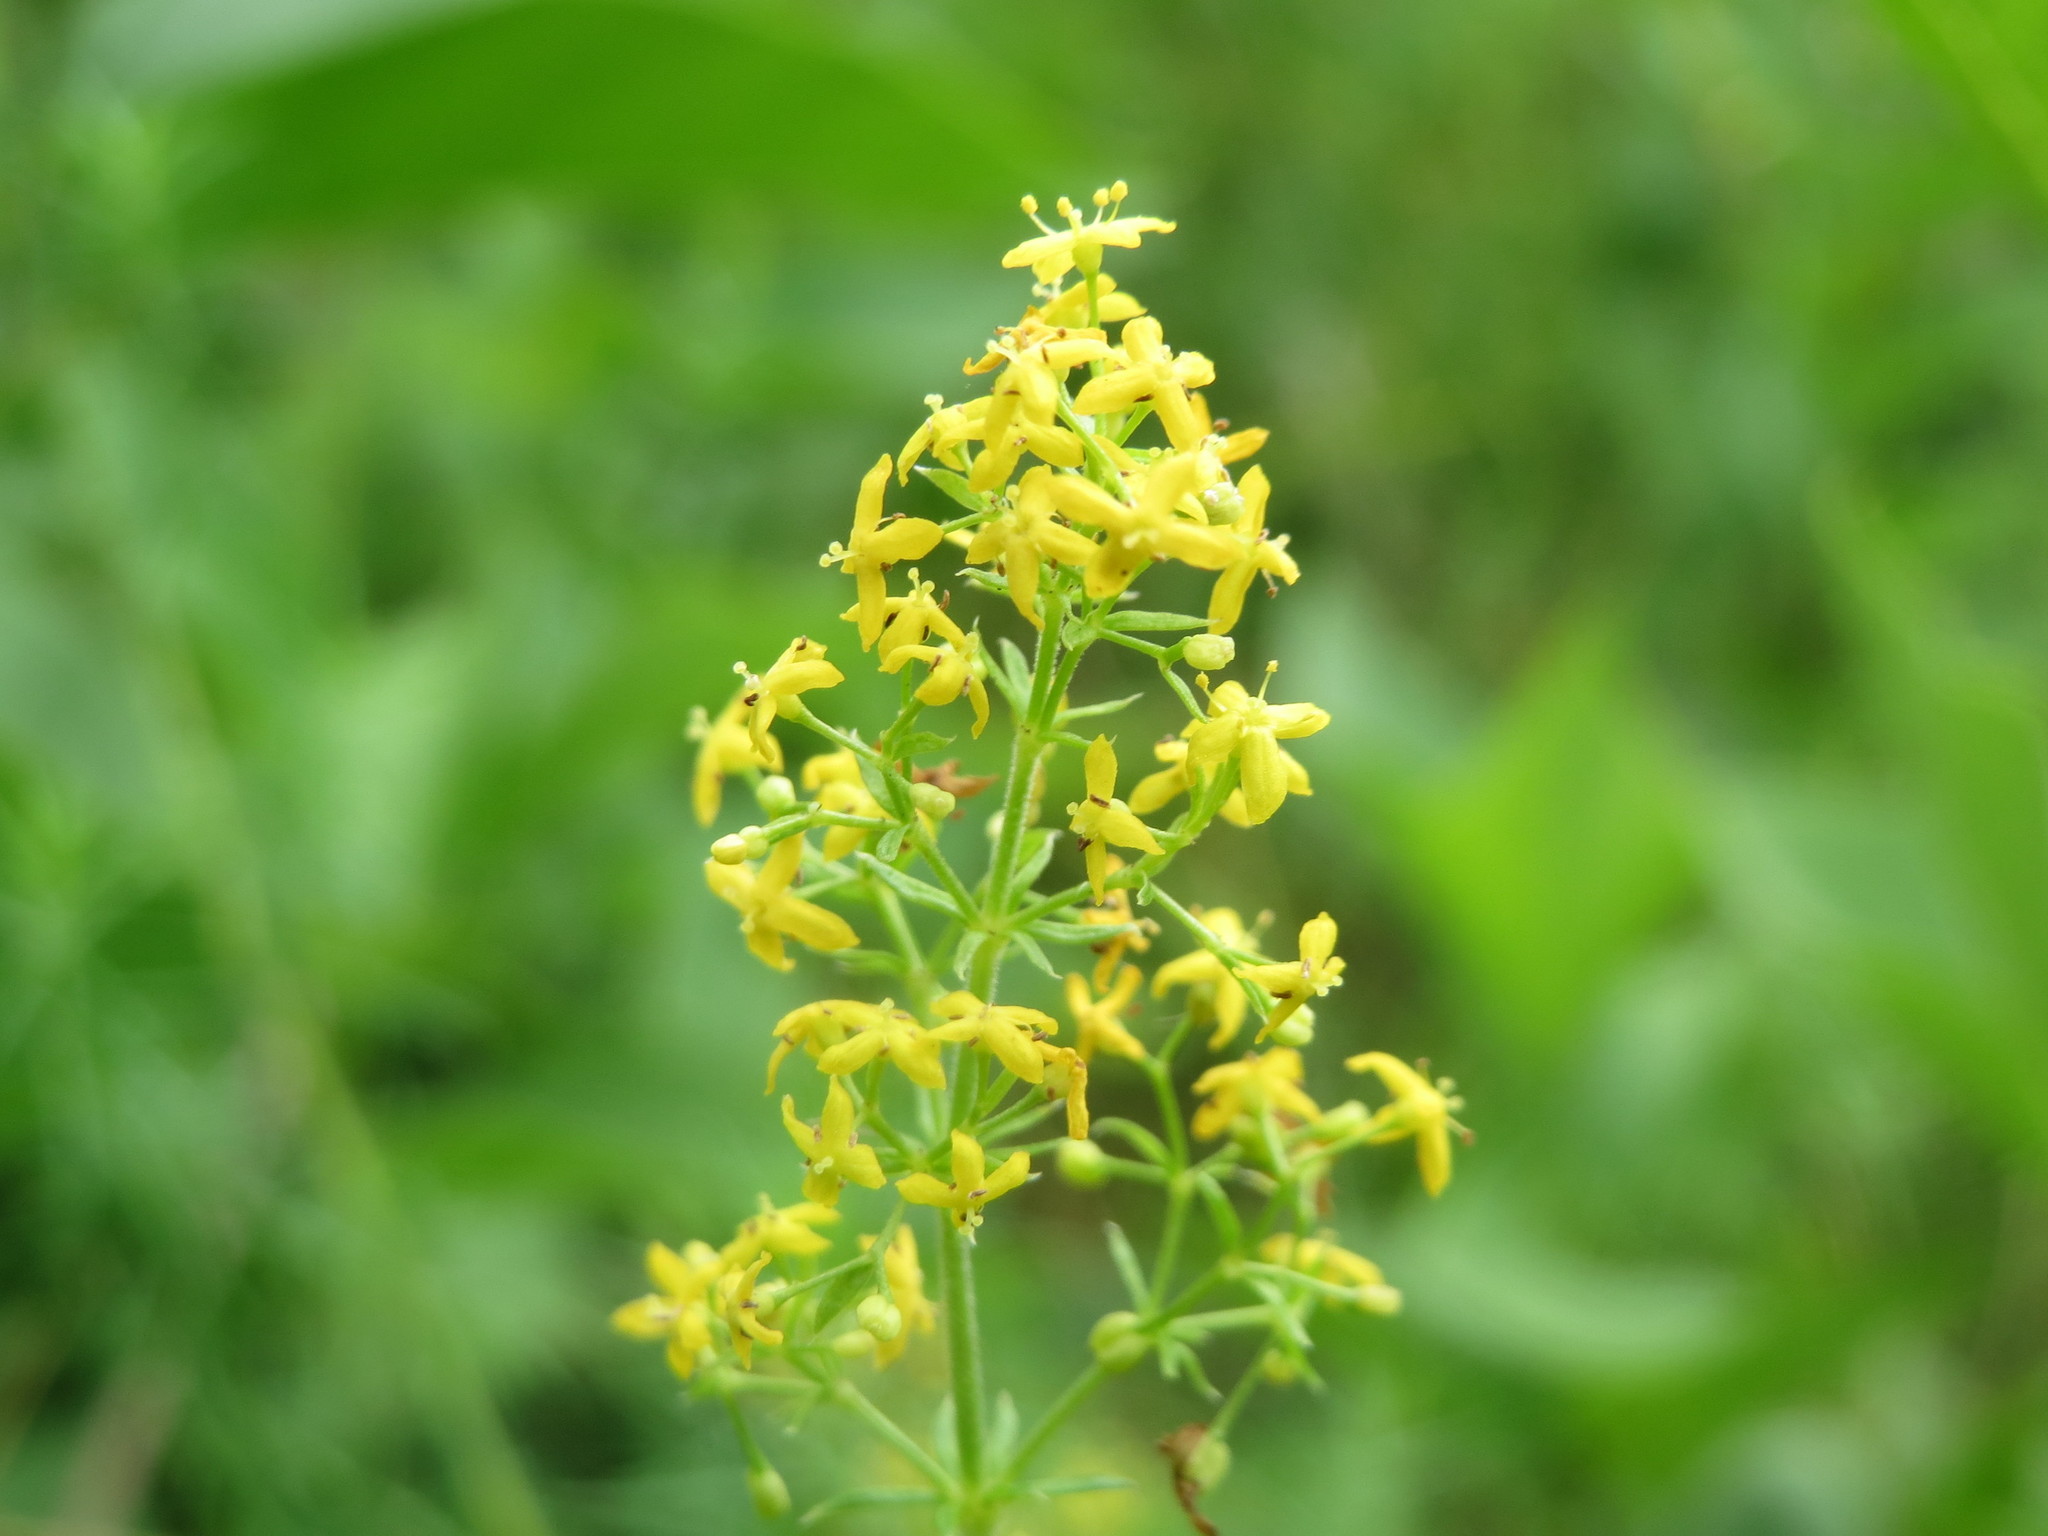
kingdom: Plantae
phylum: Tracheophyta
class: Magnoliopsida
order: Gentianales
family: Rubiaceae
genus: Galium
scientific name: Galium verum
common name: Lady's bedstraw
